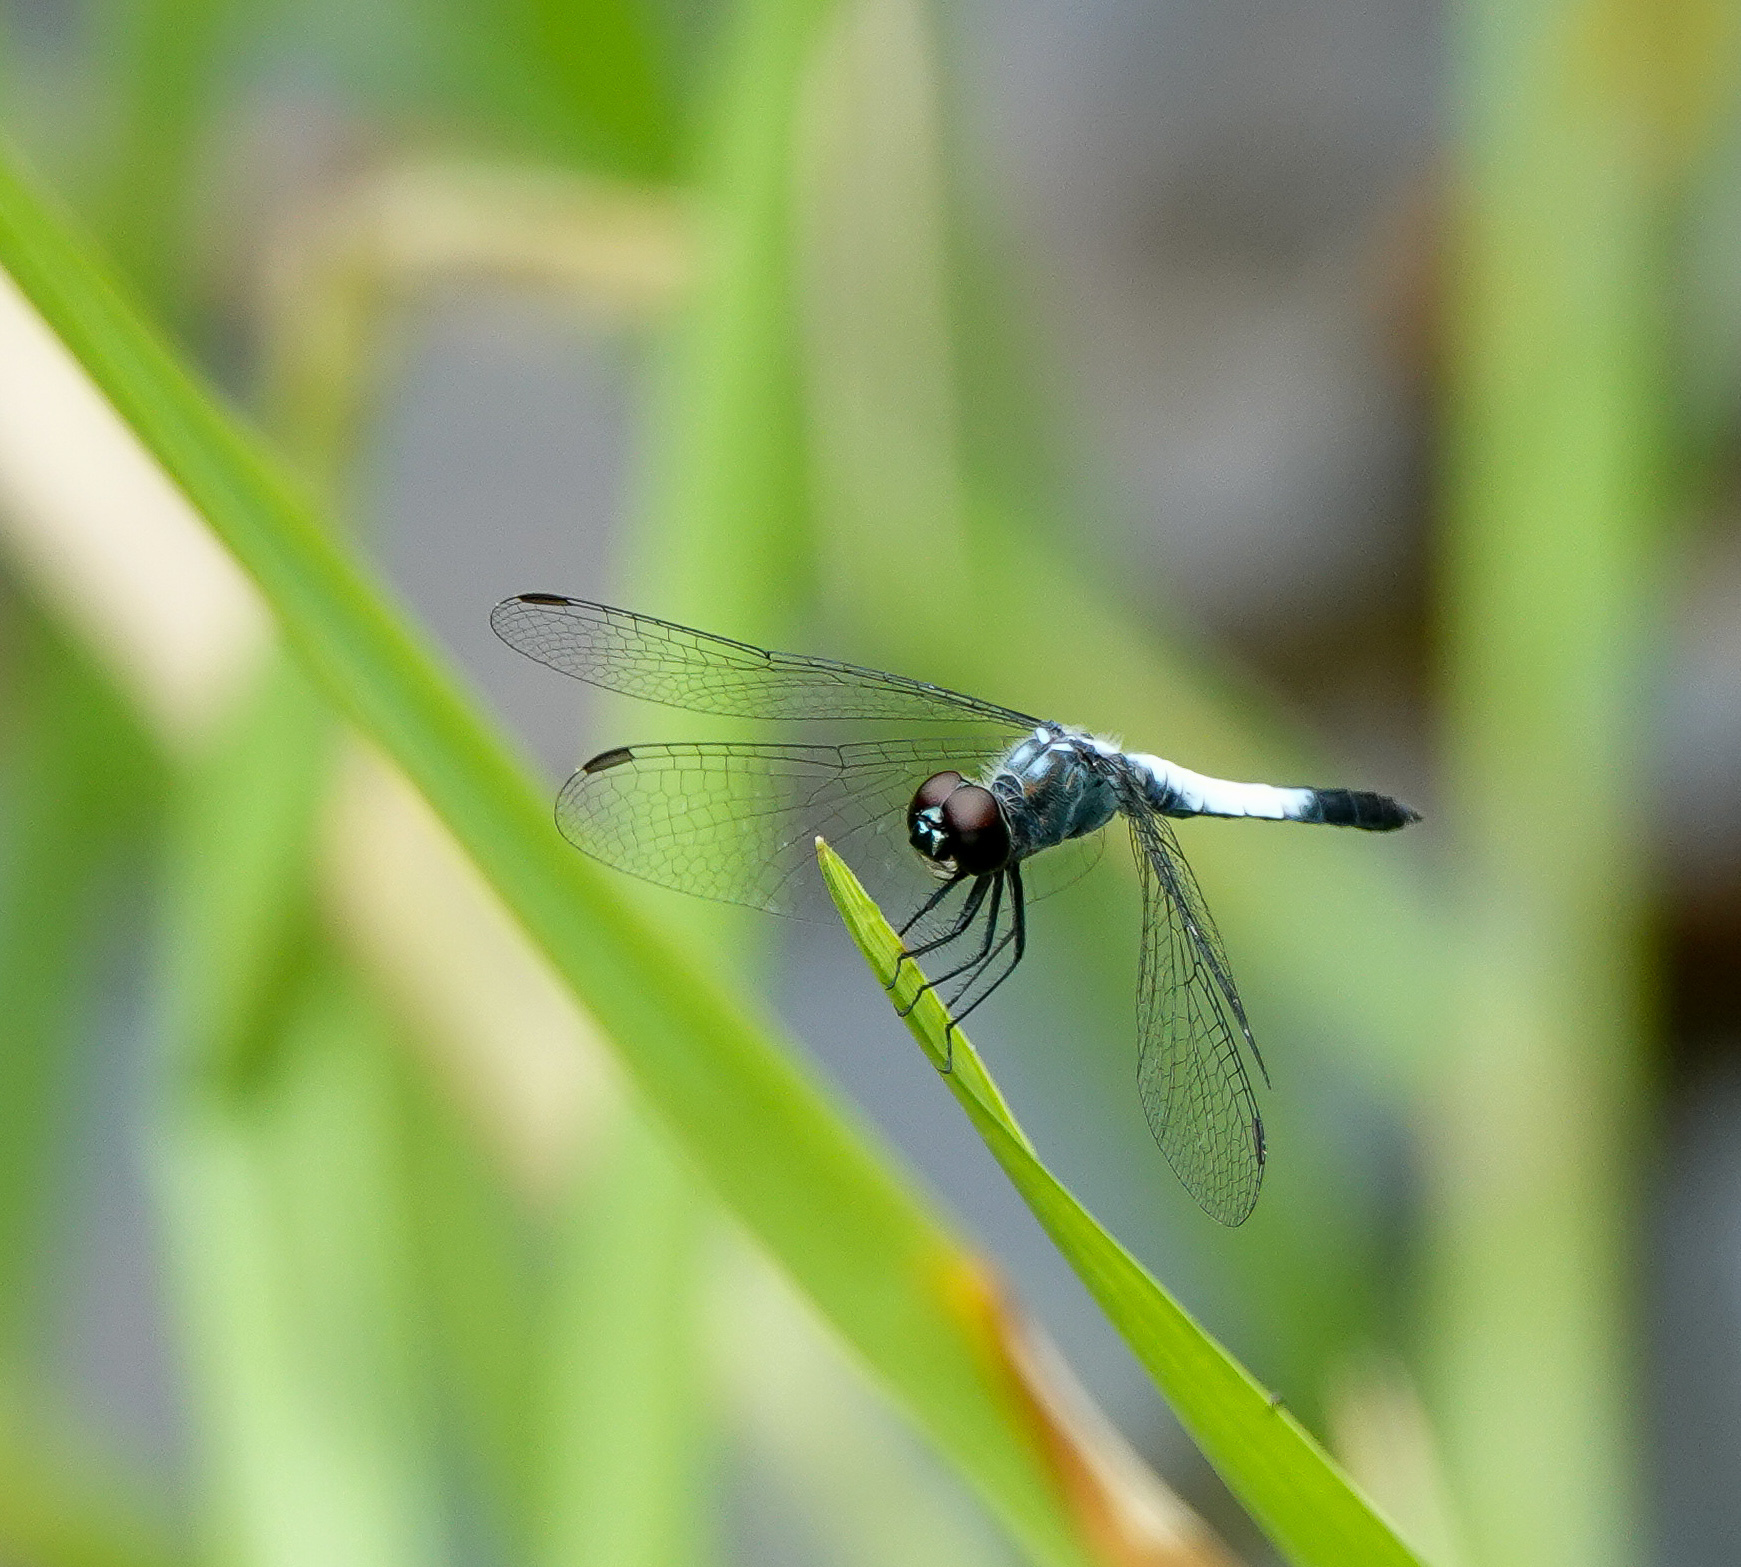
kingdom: Animalia
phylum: Arthropoda
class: Insecta
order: Odonata
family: Libellulidae
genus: Brachydiplax
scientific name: Brachydiplax farinosa
